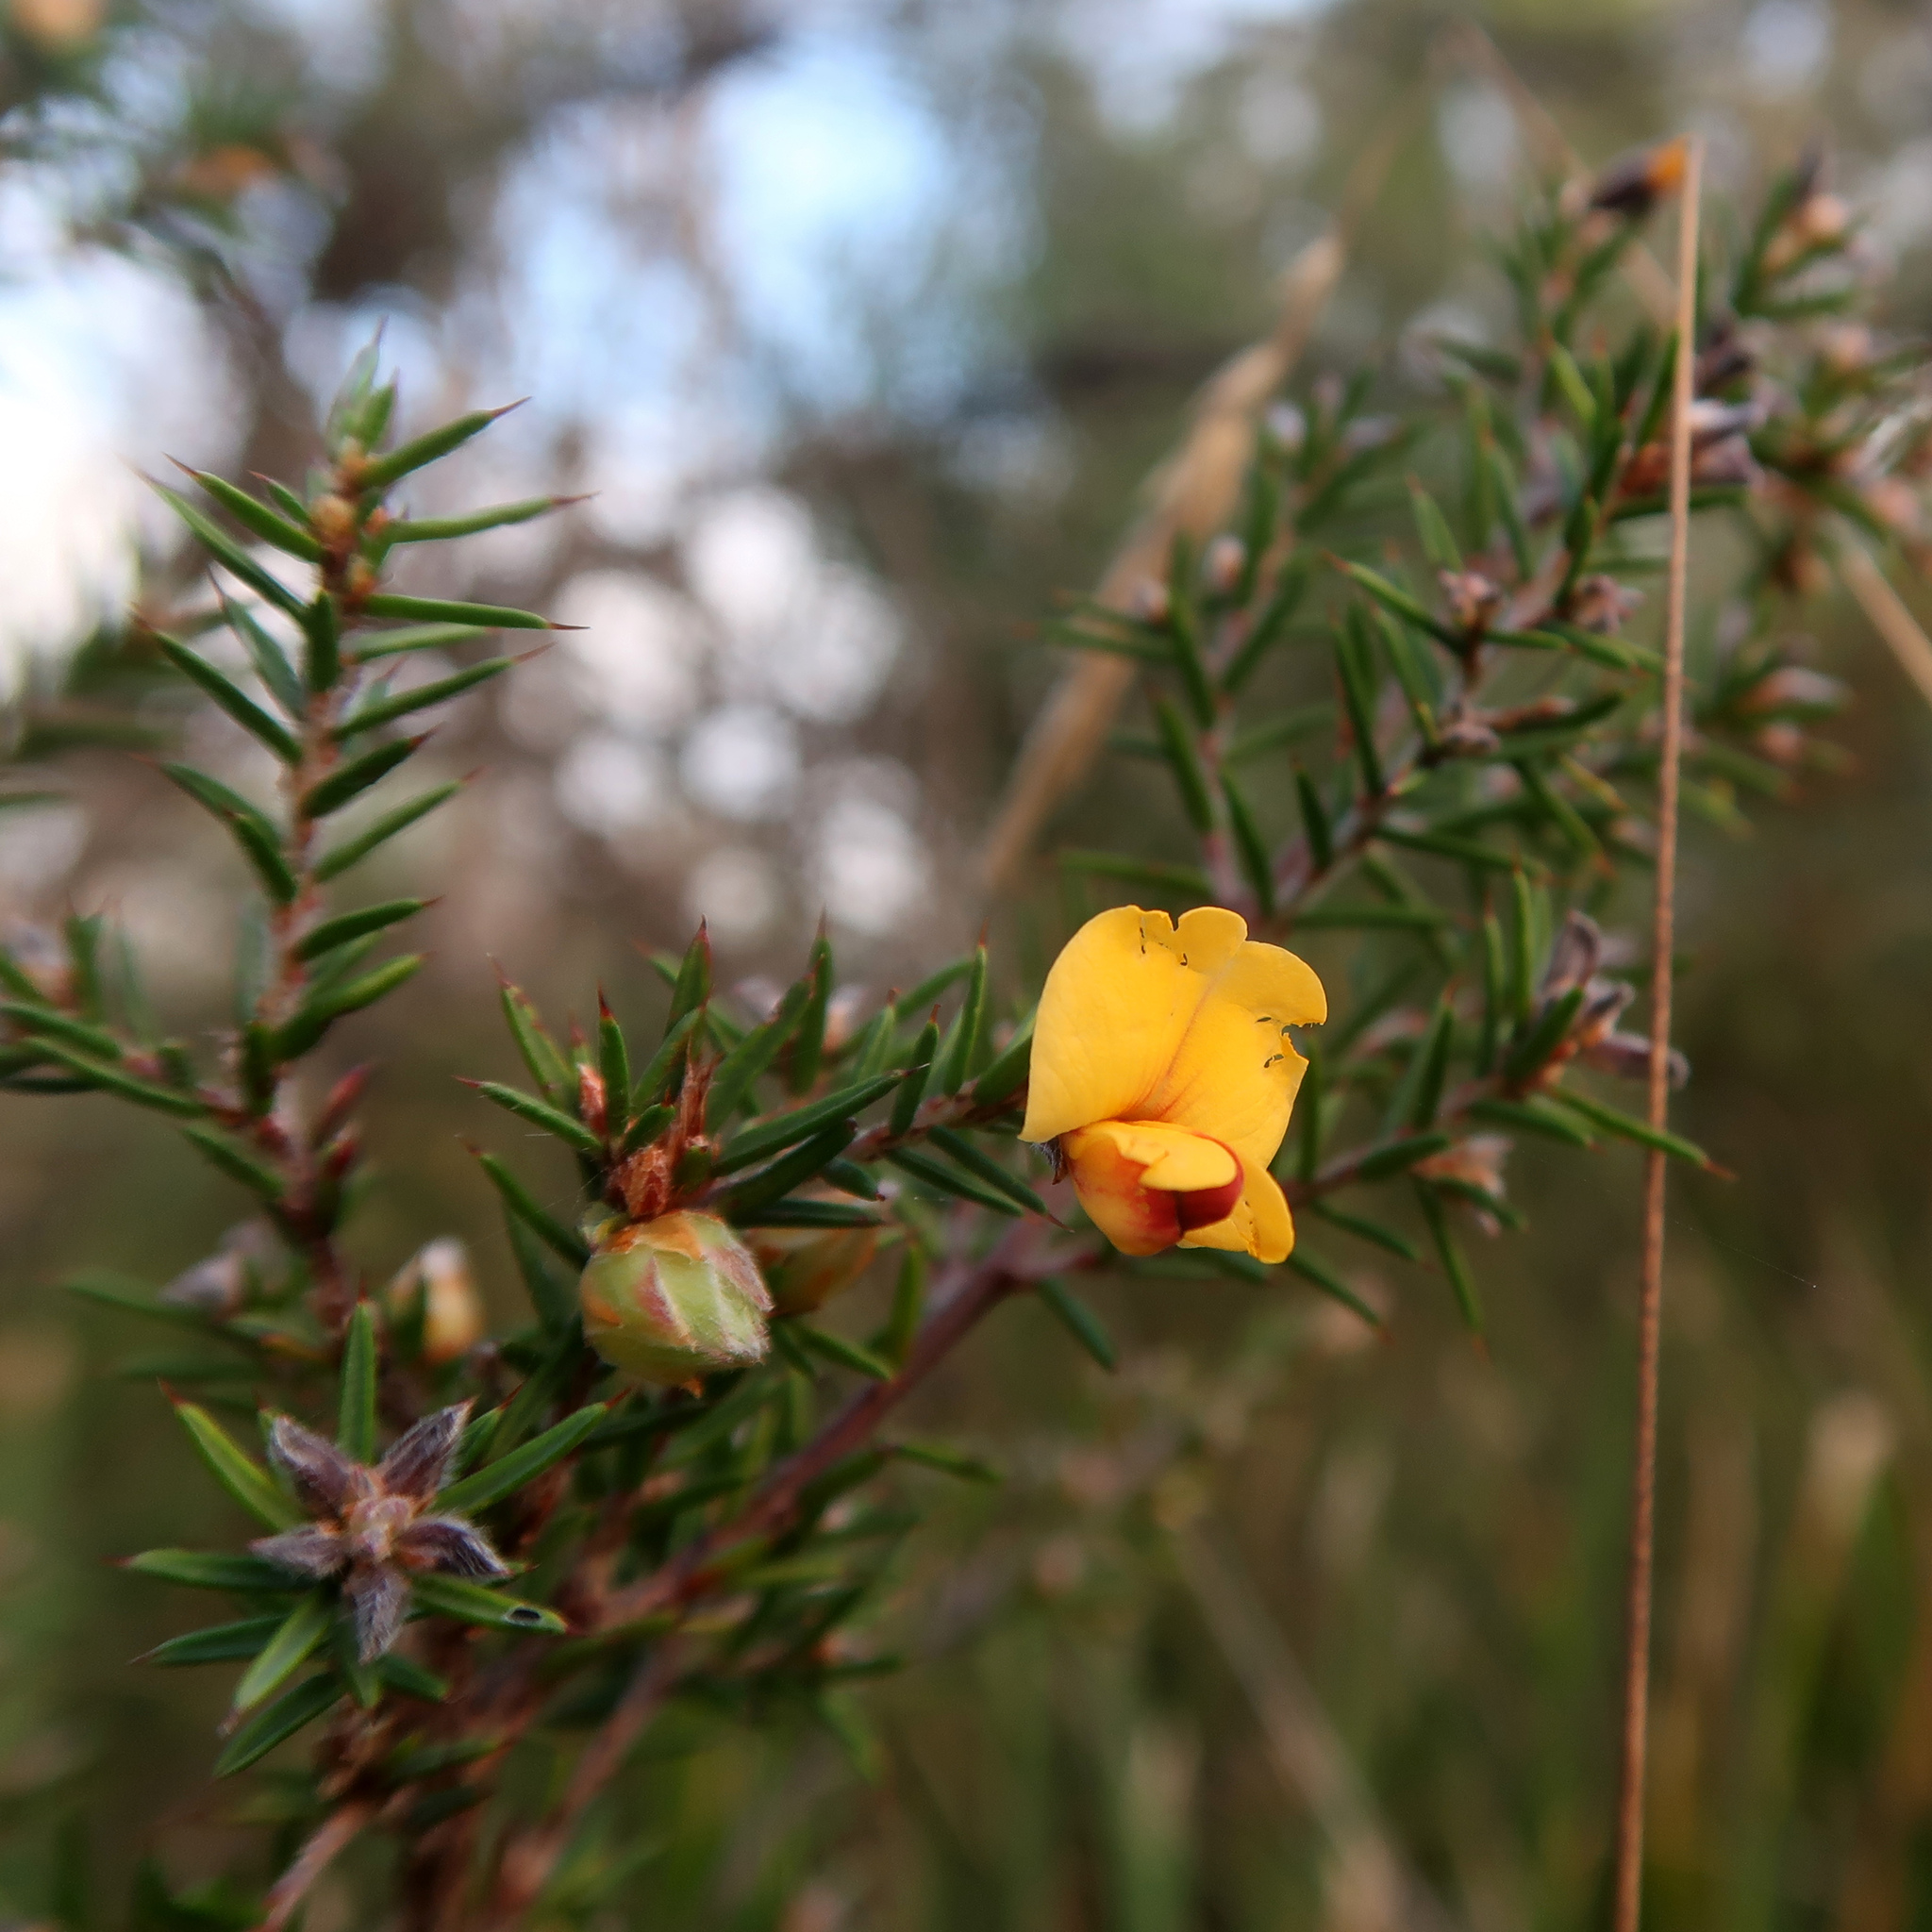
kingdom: Plantae
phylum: Tracheophyta
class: Magnoliopsida
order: Fabales
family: Fabaceae
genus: Pultenaea
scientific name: Pultenaea juniperina
